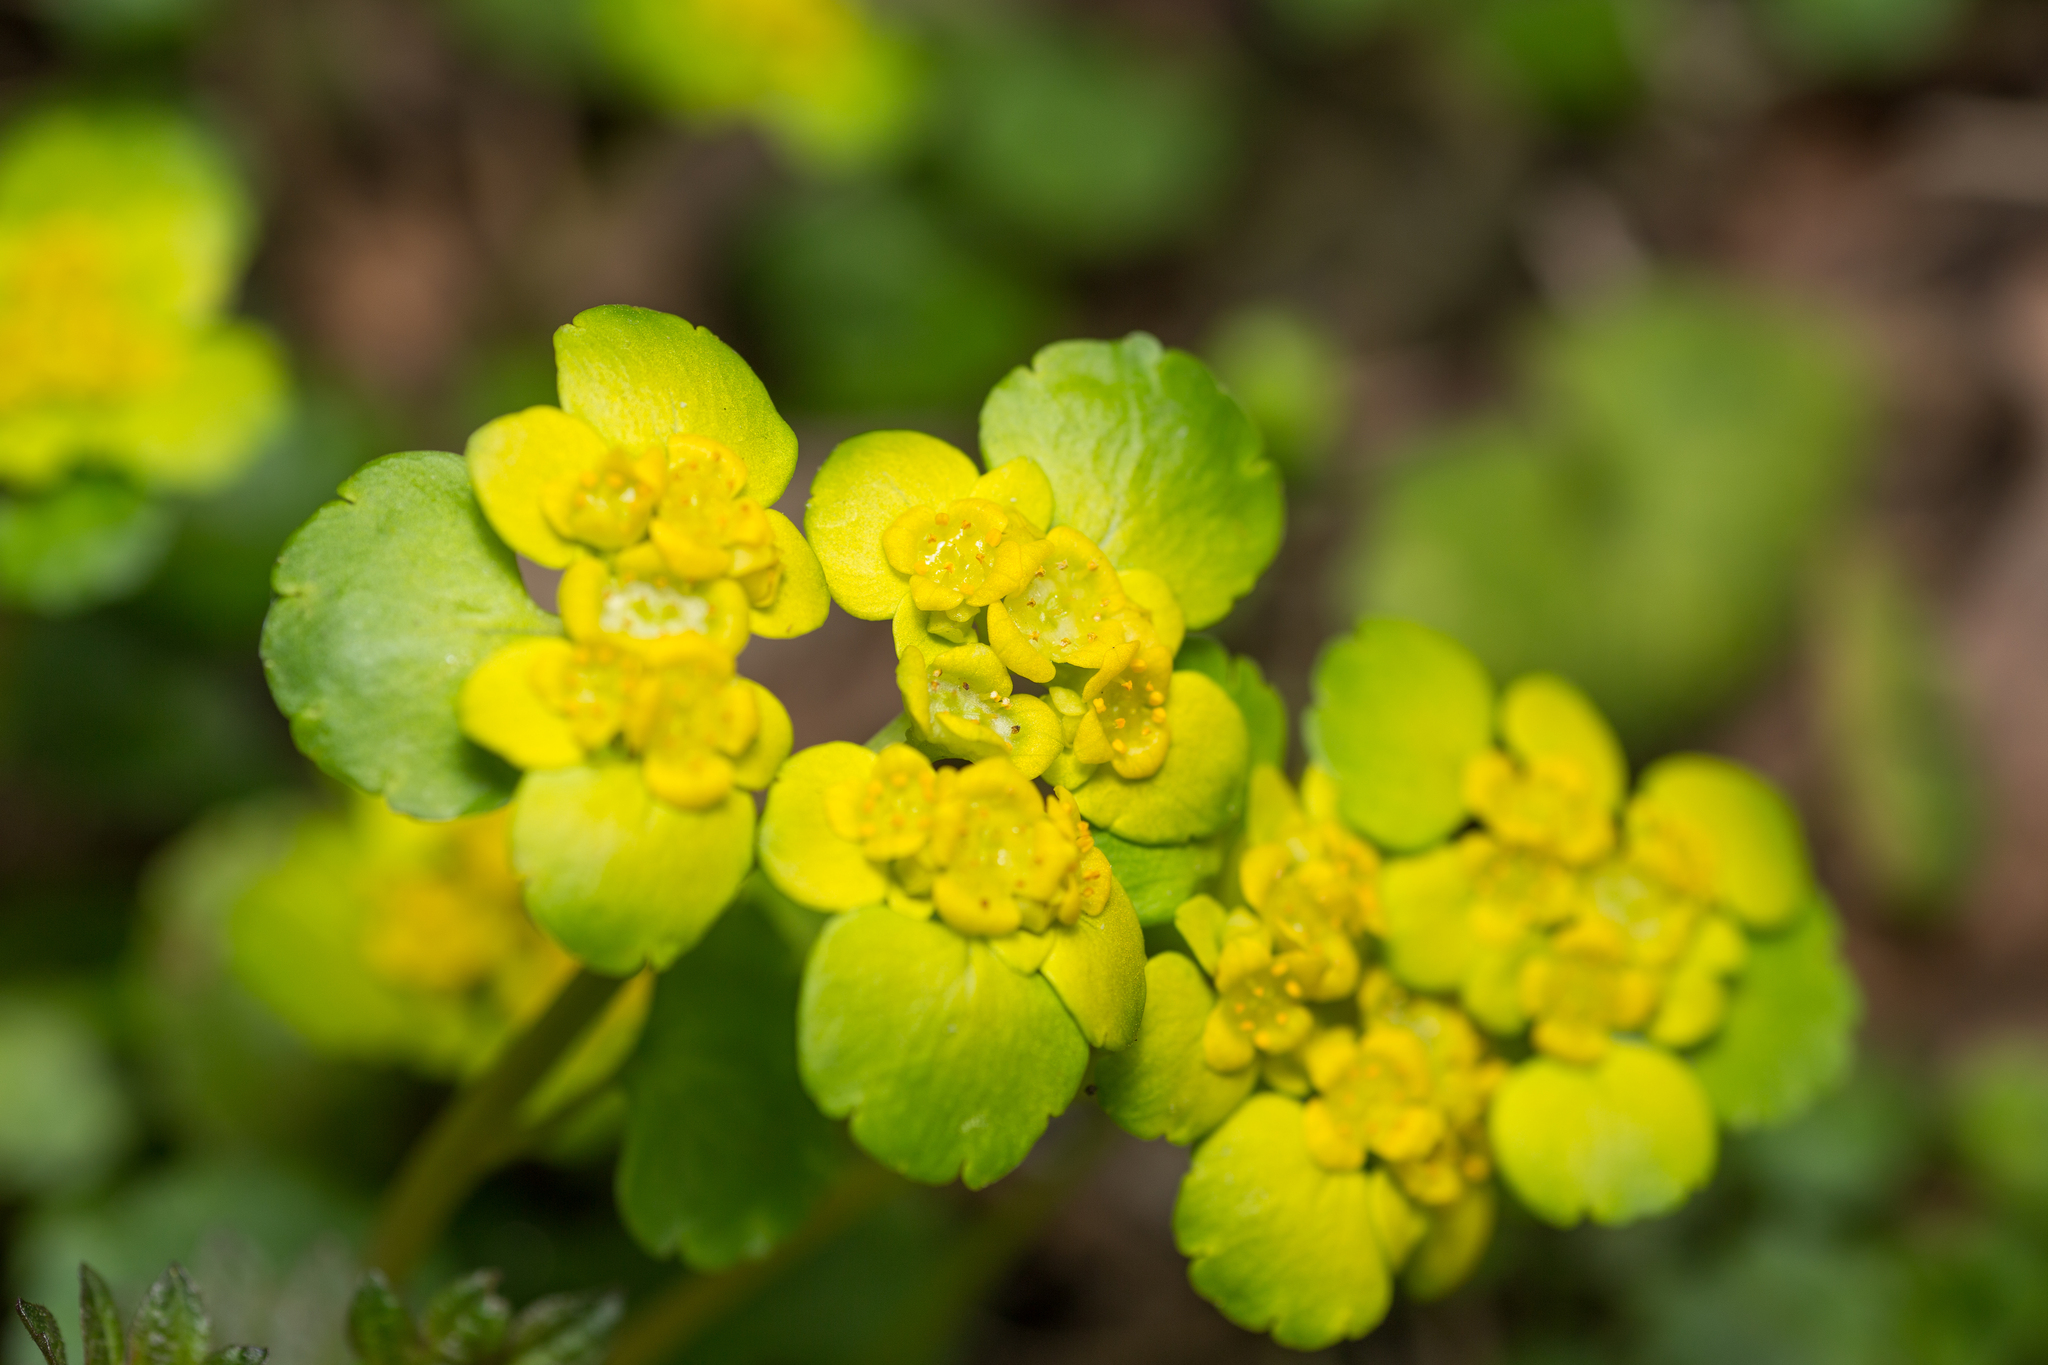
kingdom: Plantae
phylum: Tracheophyta
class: Magnoliopsida
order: Saxifragales
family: Saxifragaceae
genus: Chrysosplenium
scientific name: Chrysosplenium alternifolium
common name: Alternate-leaved golden-saxifrage
